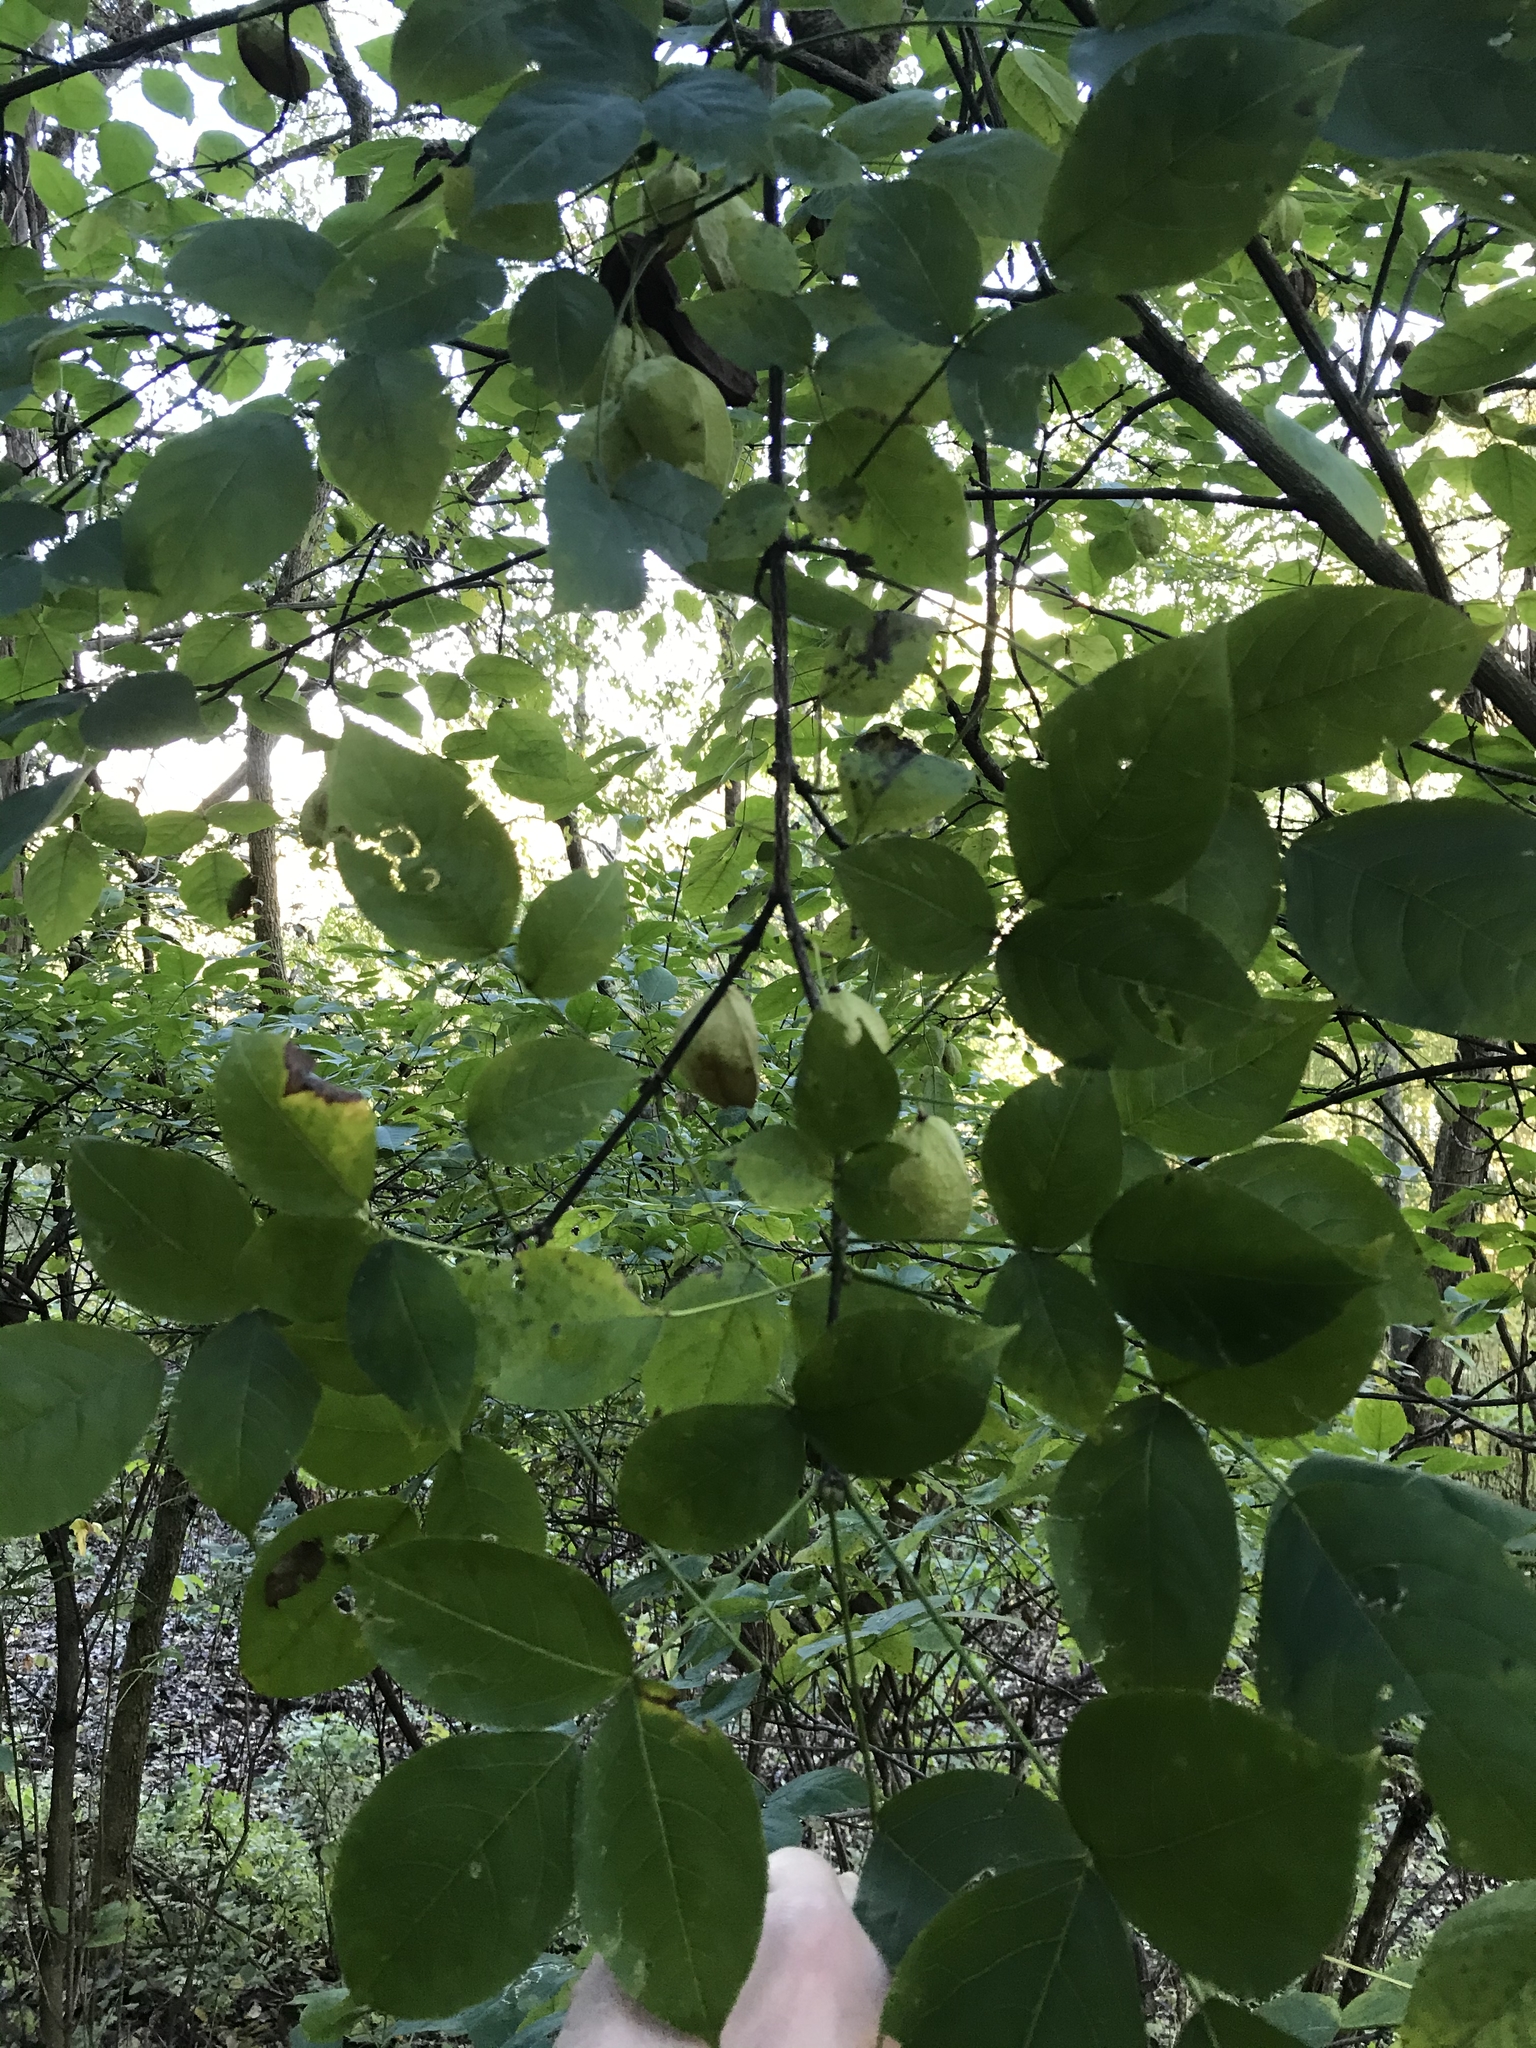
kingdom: Plantae
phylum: Tracheophyta
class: Magnoliopsida
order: Crossosomatales
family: Staphyleaceae
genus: Staphylea
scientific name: Staphylea trifolia
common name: American bladdernut
